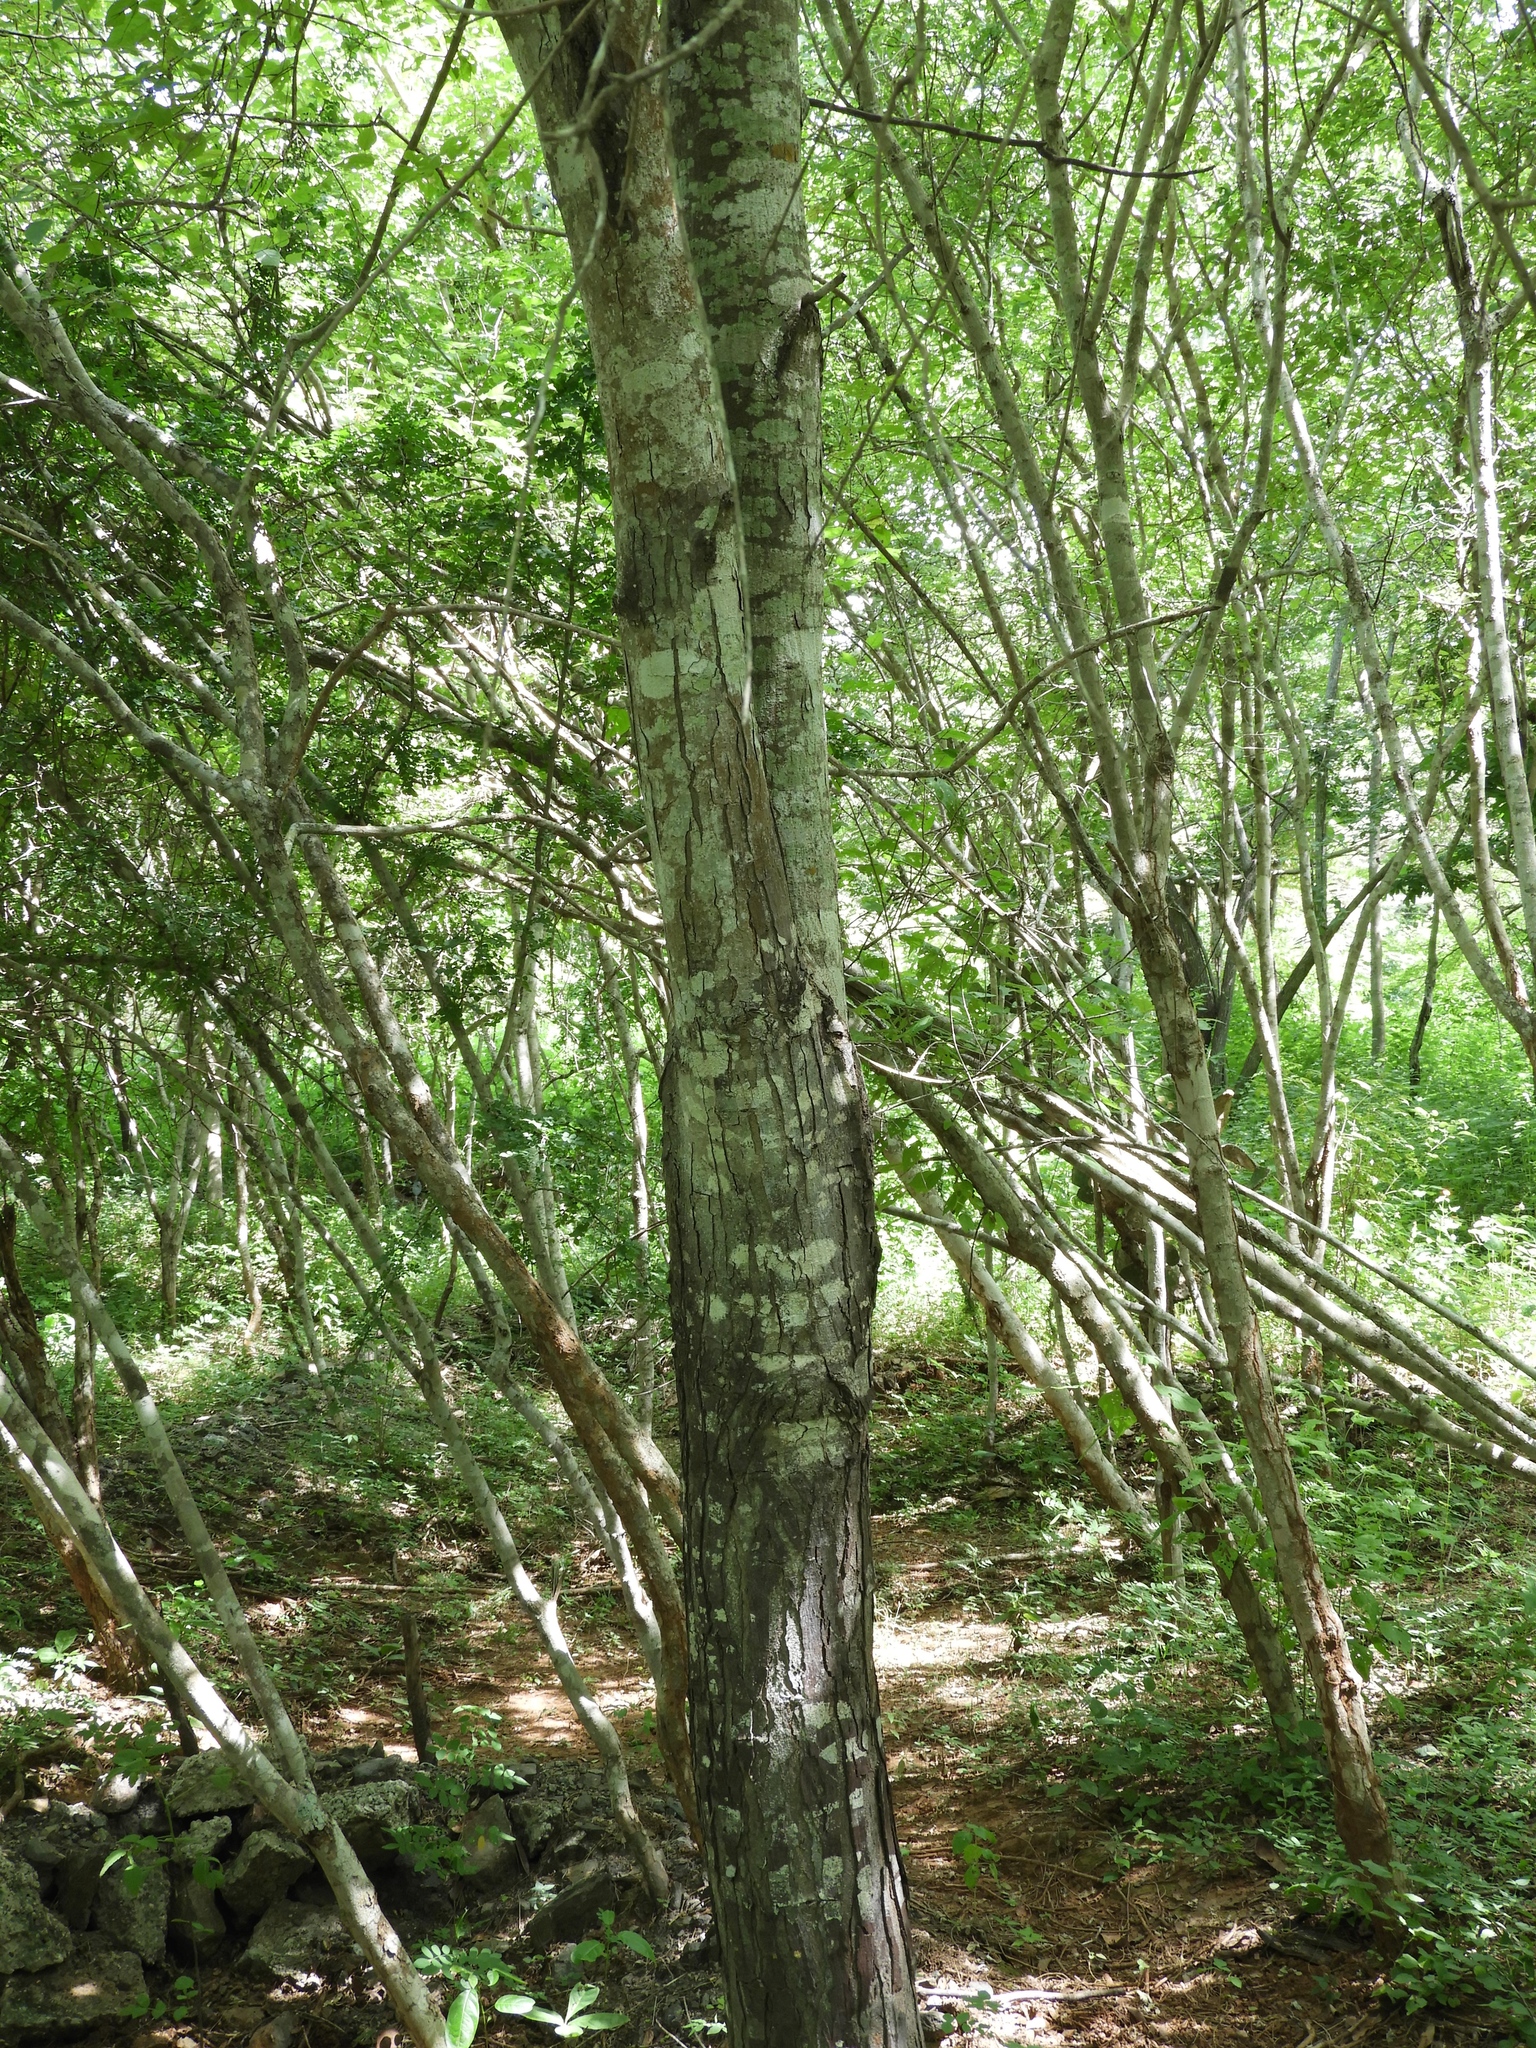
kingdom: Plantae
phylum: Tracheophyta
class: Magnoliopsida
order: Sapindales
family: Meliaceae
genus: Swietenia
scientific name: Swietenia humilis
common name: Pacific coast mahogany
